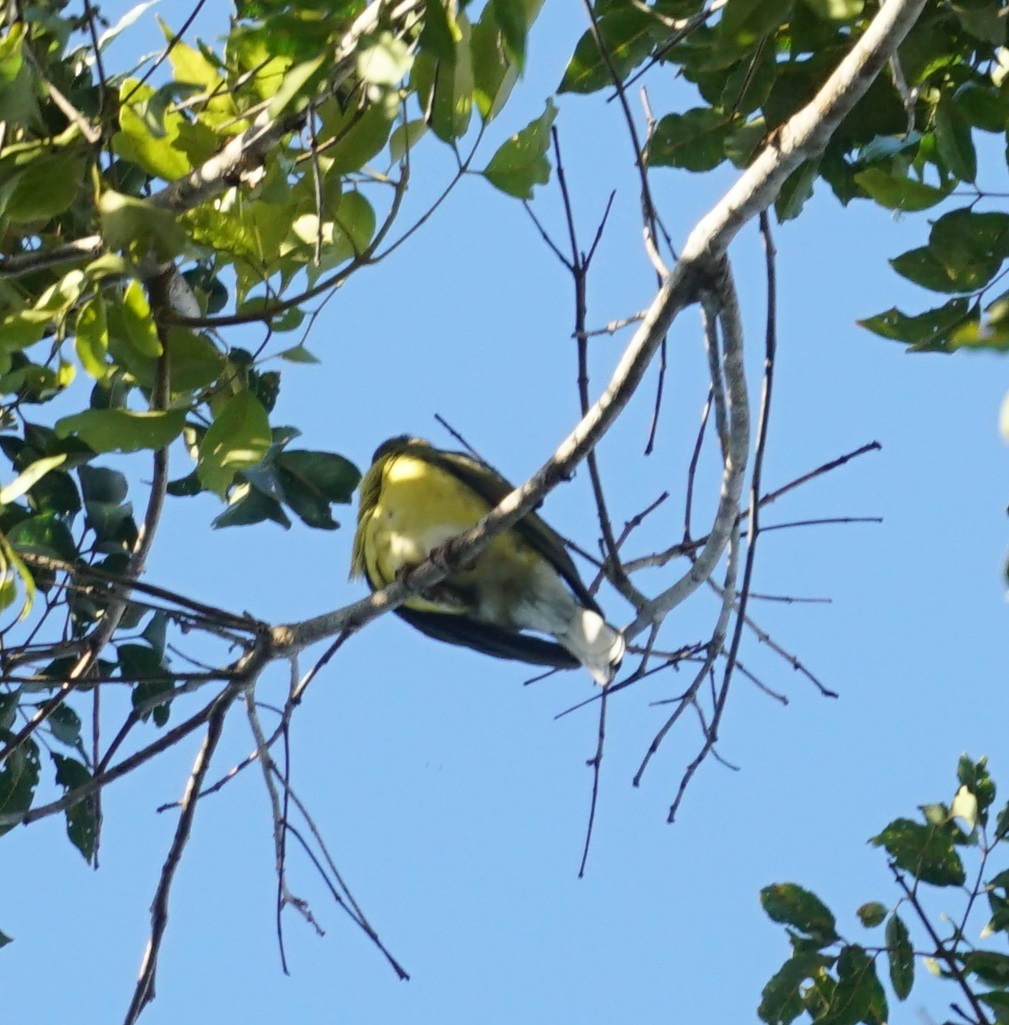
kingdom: Animalia
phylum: Chordata
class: Aves
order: Passeriformes
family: Oriolidae
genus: Sphecotheres
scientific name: Sphecotheres vieilloti
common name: Australasian figbird
